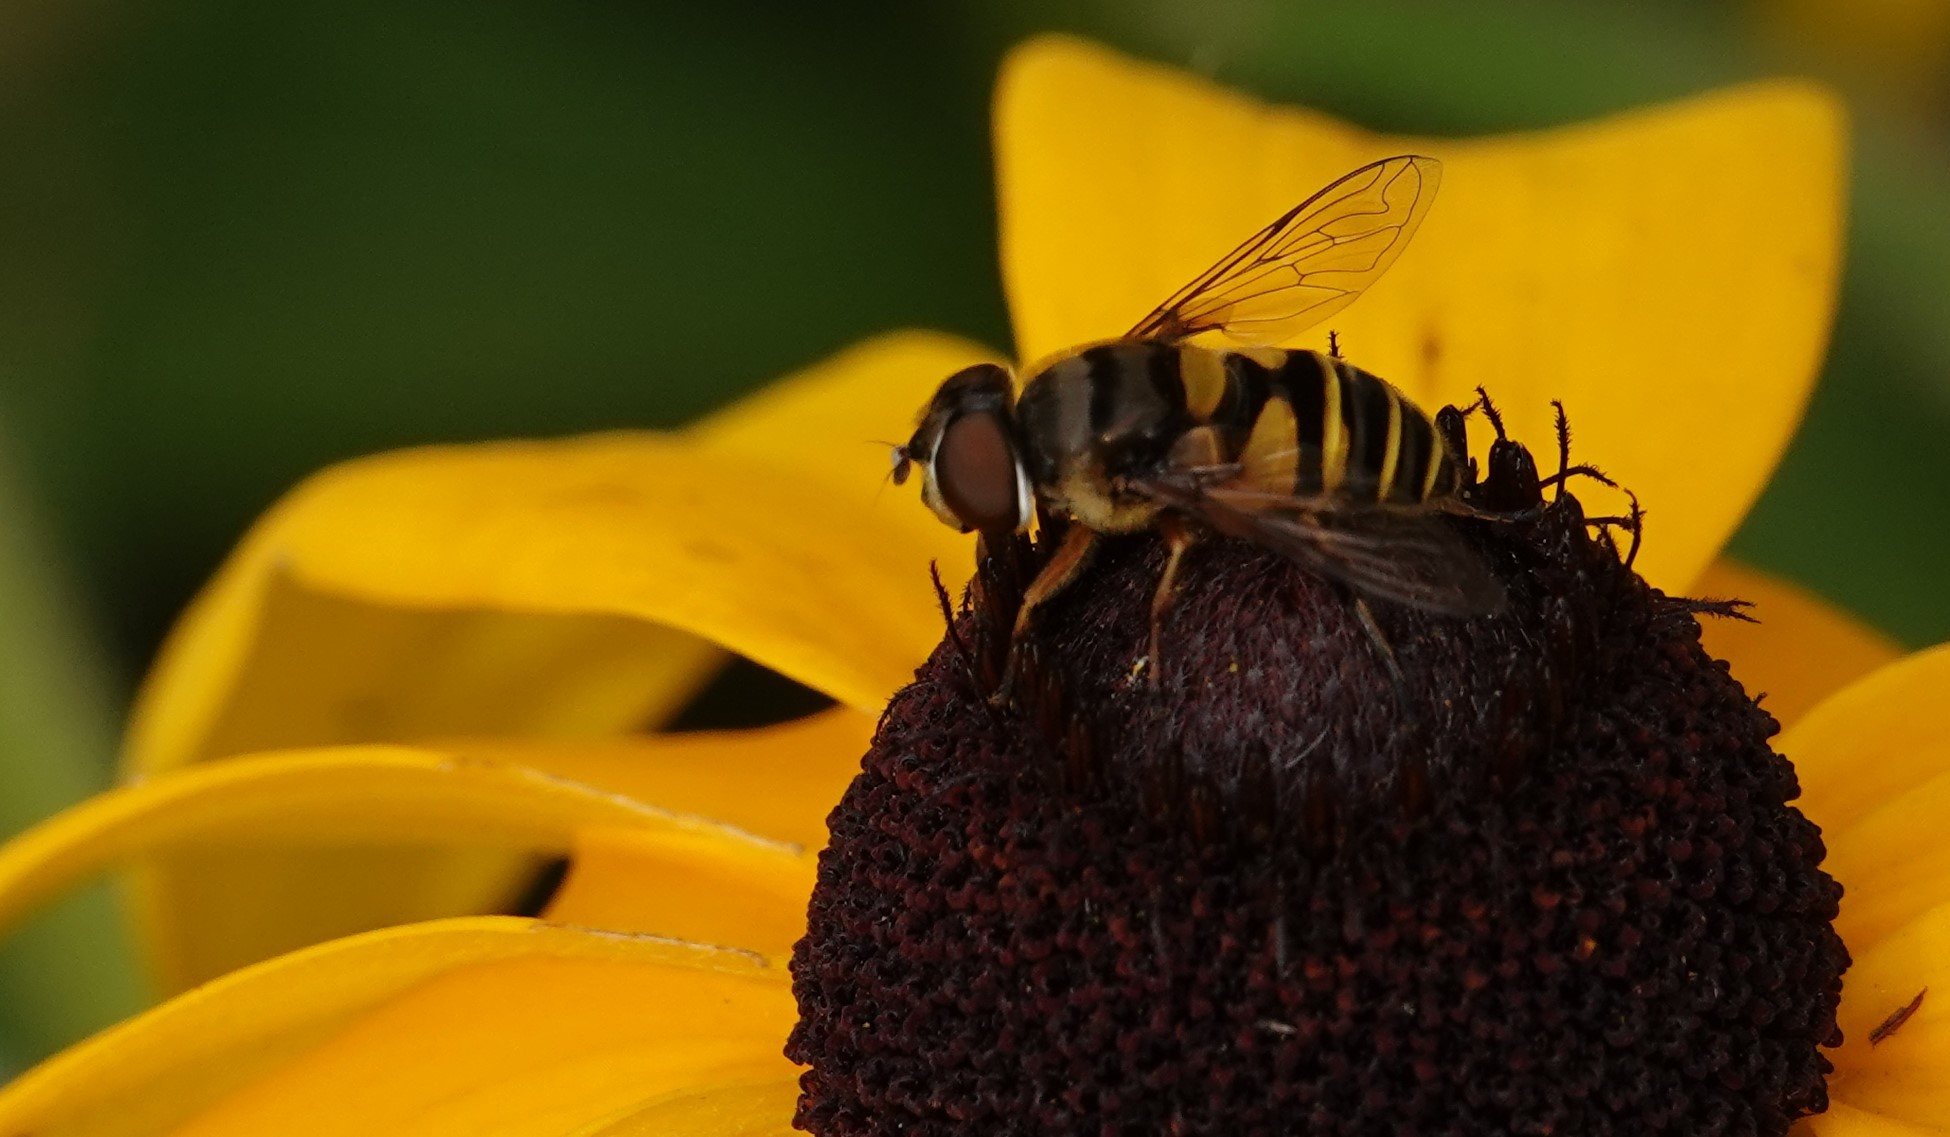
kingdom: Animalia
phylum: Arthropoda
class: Insecta
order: Diptera
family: Syrphidae
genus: Eristalis
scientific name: Eristalis transversa
